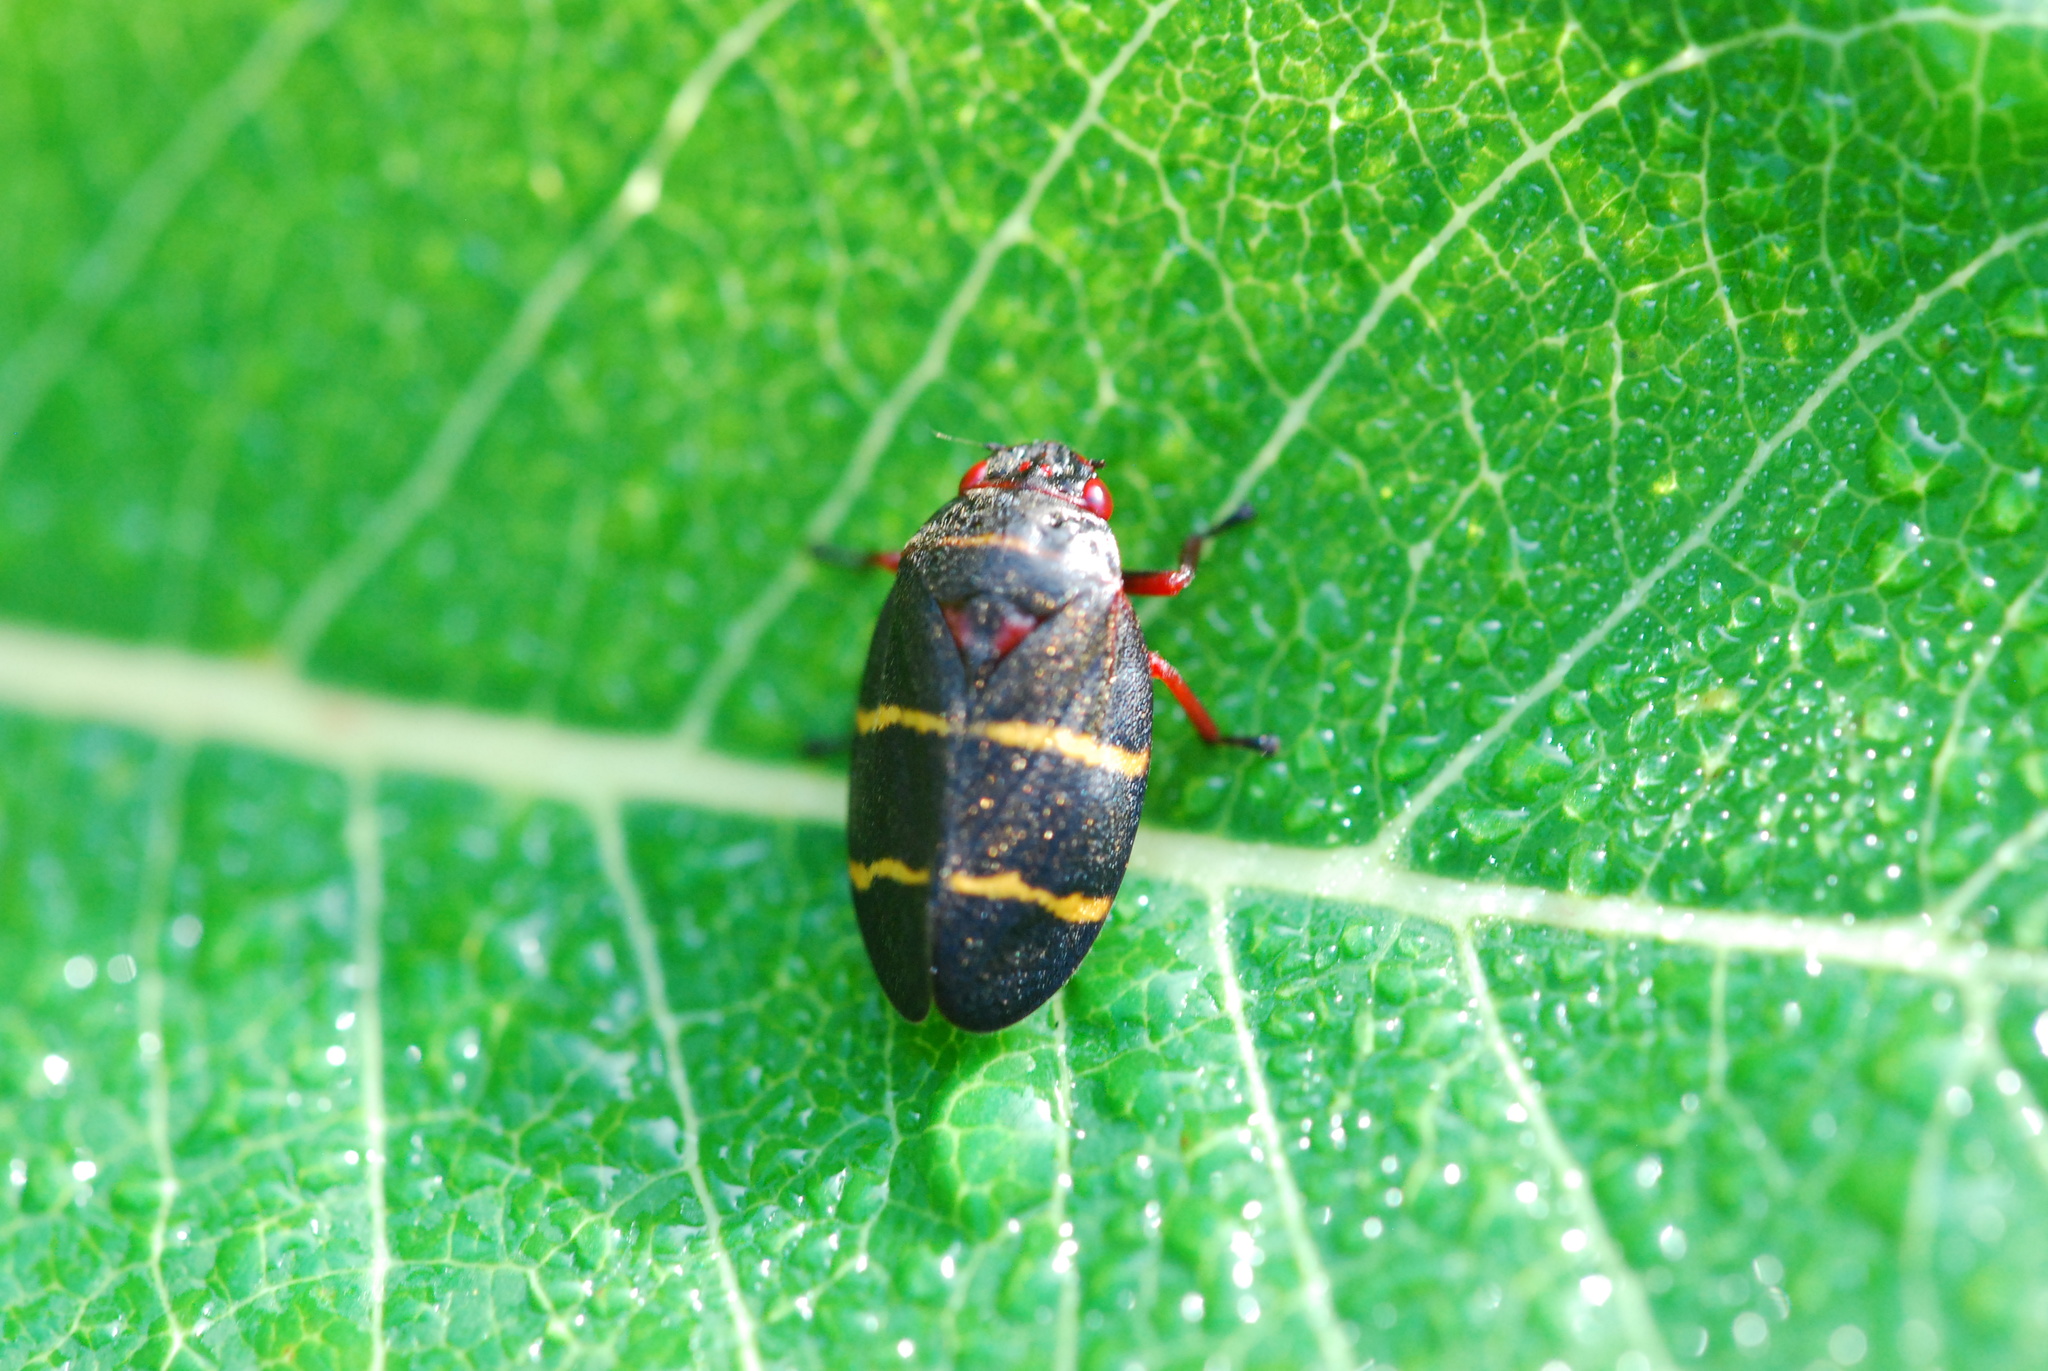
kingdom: Animalia
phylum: Arthropoda
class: Insecta
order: Hemiptera
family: Cercopidae
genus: Prosapia
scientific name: Prosapia bicincta
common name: Twolined spittlebug
